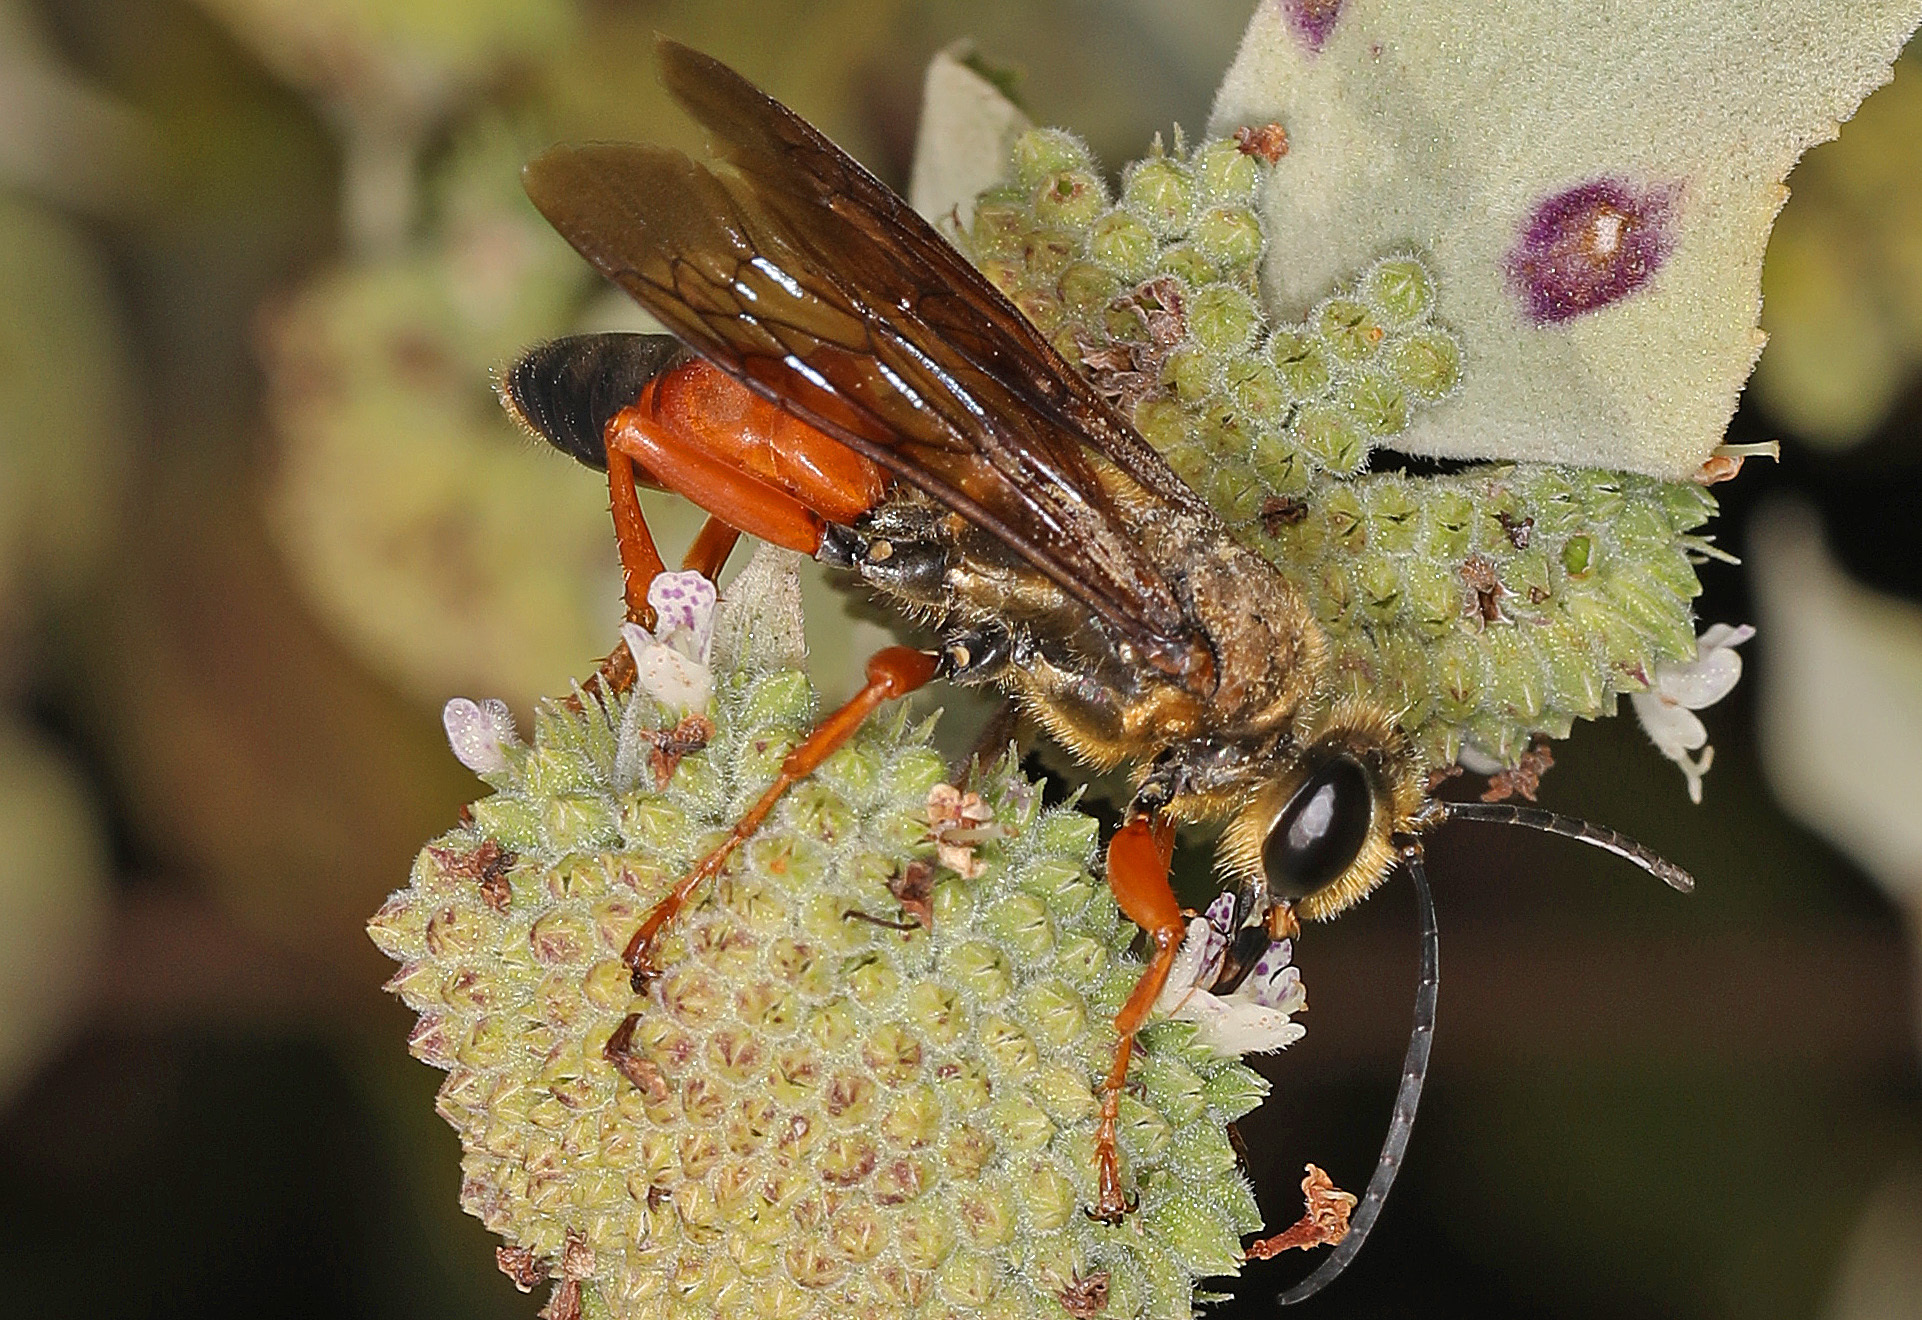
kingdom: Animalia
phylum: Arthropoda
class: Insecta
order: Hymenoptera
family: Sphecidae
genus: Sphex
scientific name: Sphex ichneumoneus
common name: Great golden digger wasp
